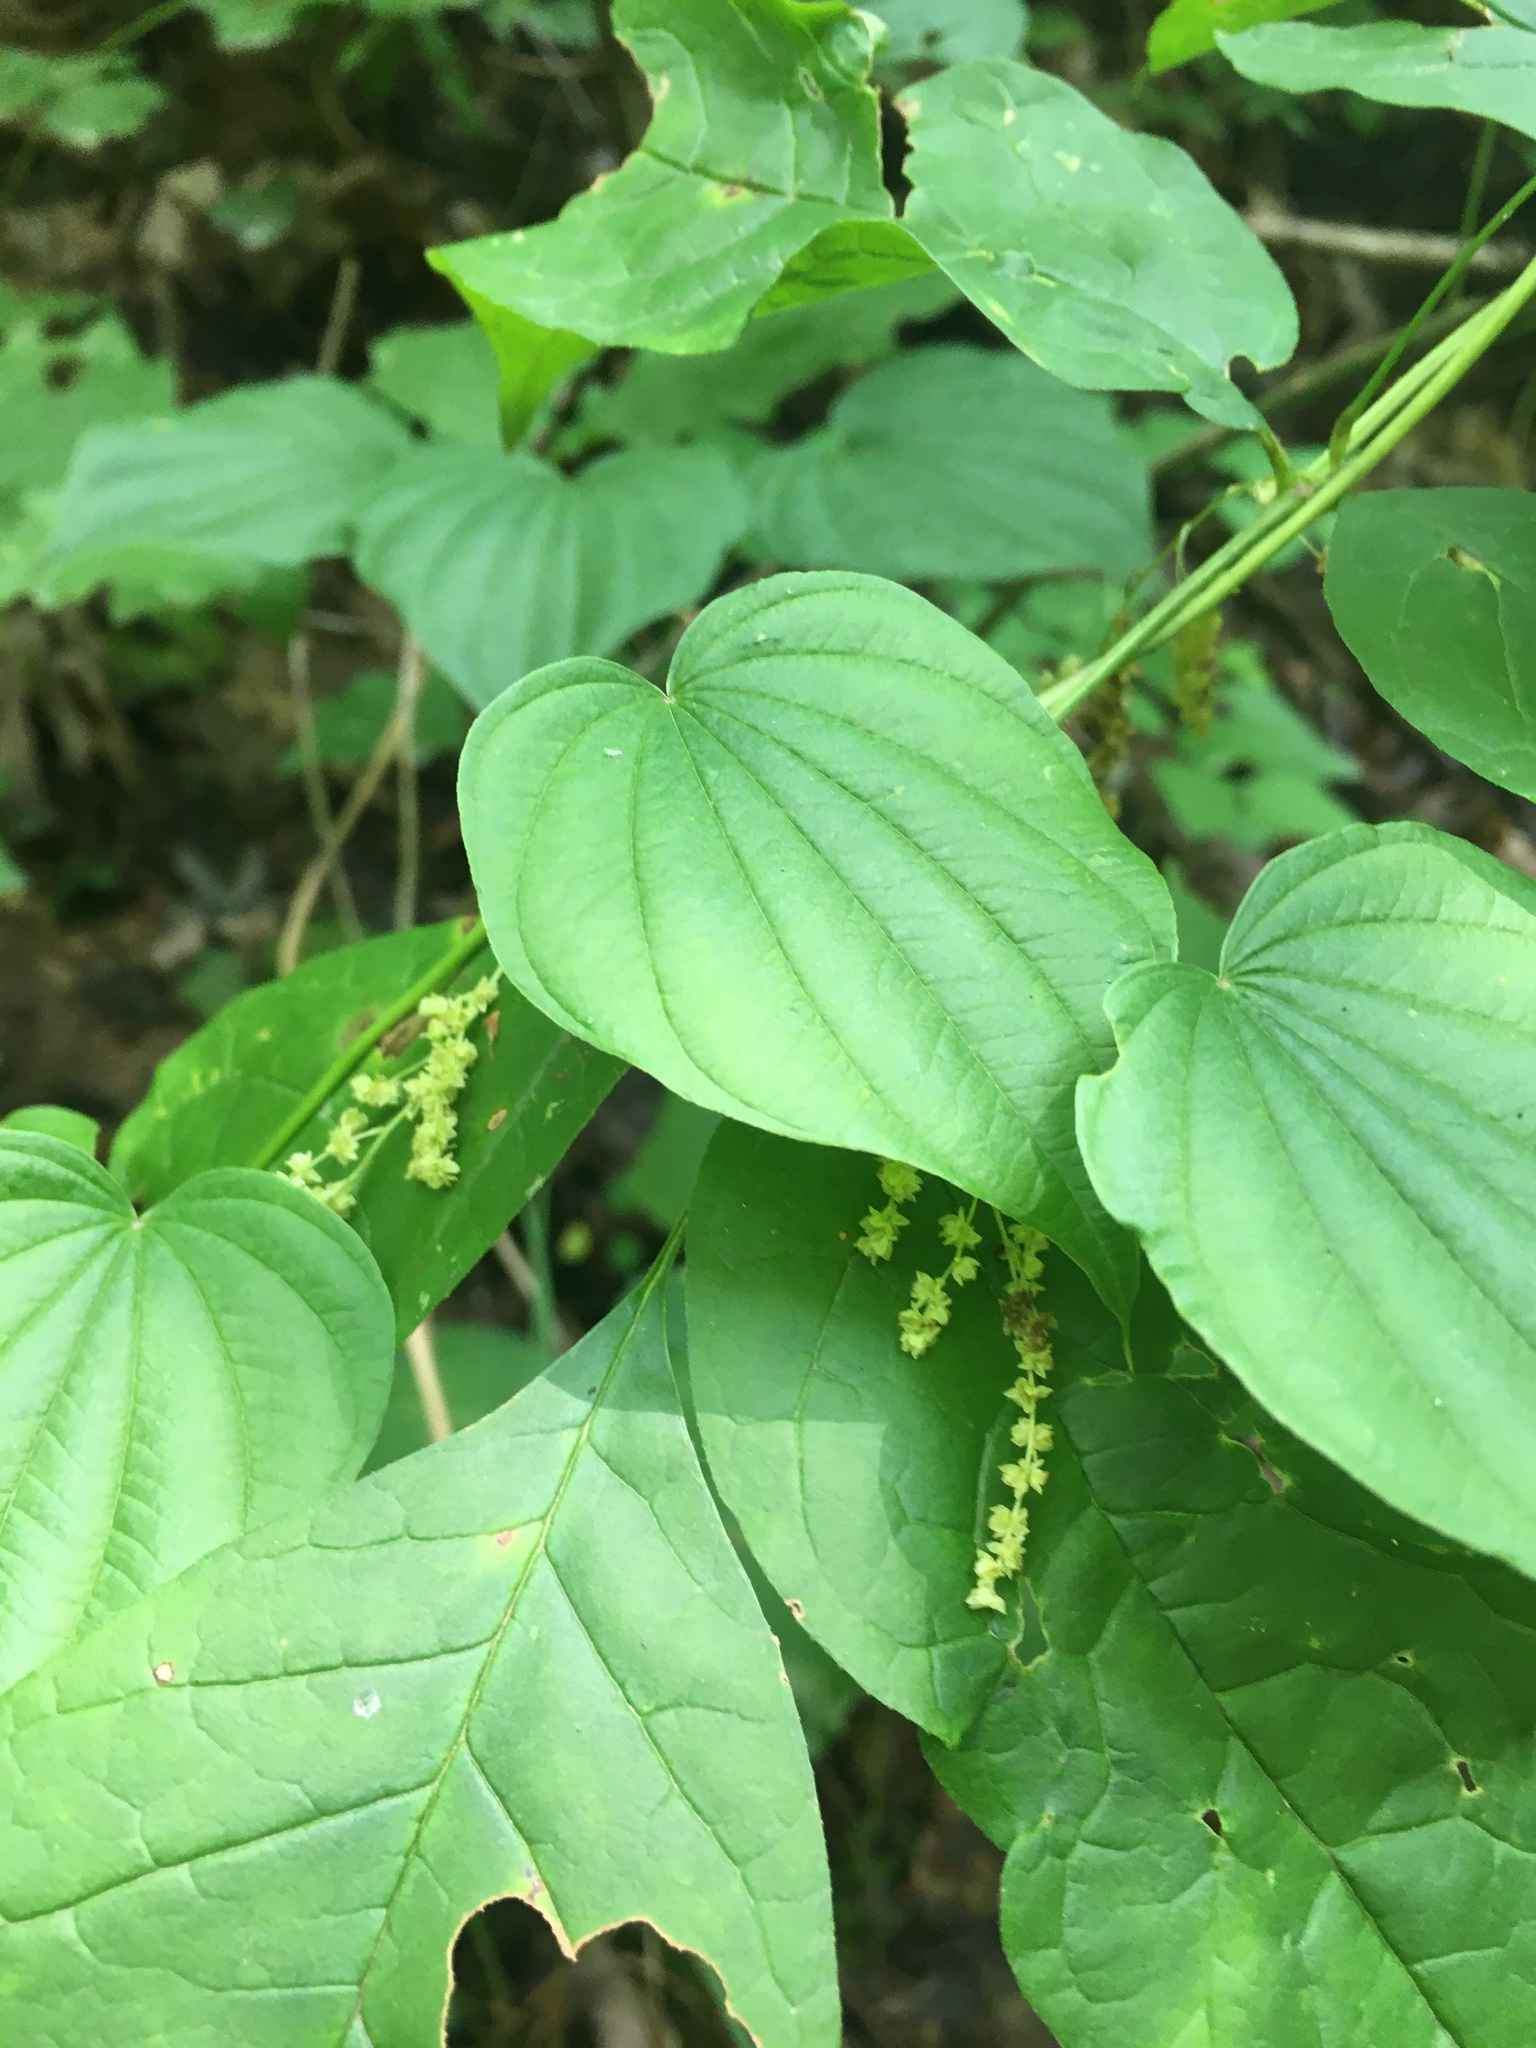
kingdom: Plantae
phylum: Tracheophyta
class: Liliopsida
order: Dioscoreales
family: Dioscoreaceae
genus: Dioscorea
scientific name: Dioscorea villosa
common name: Wild yam
